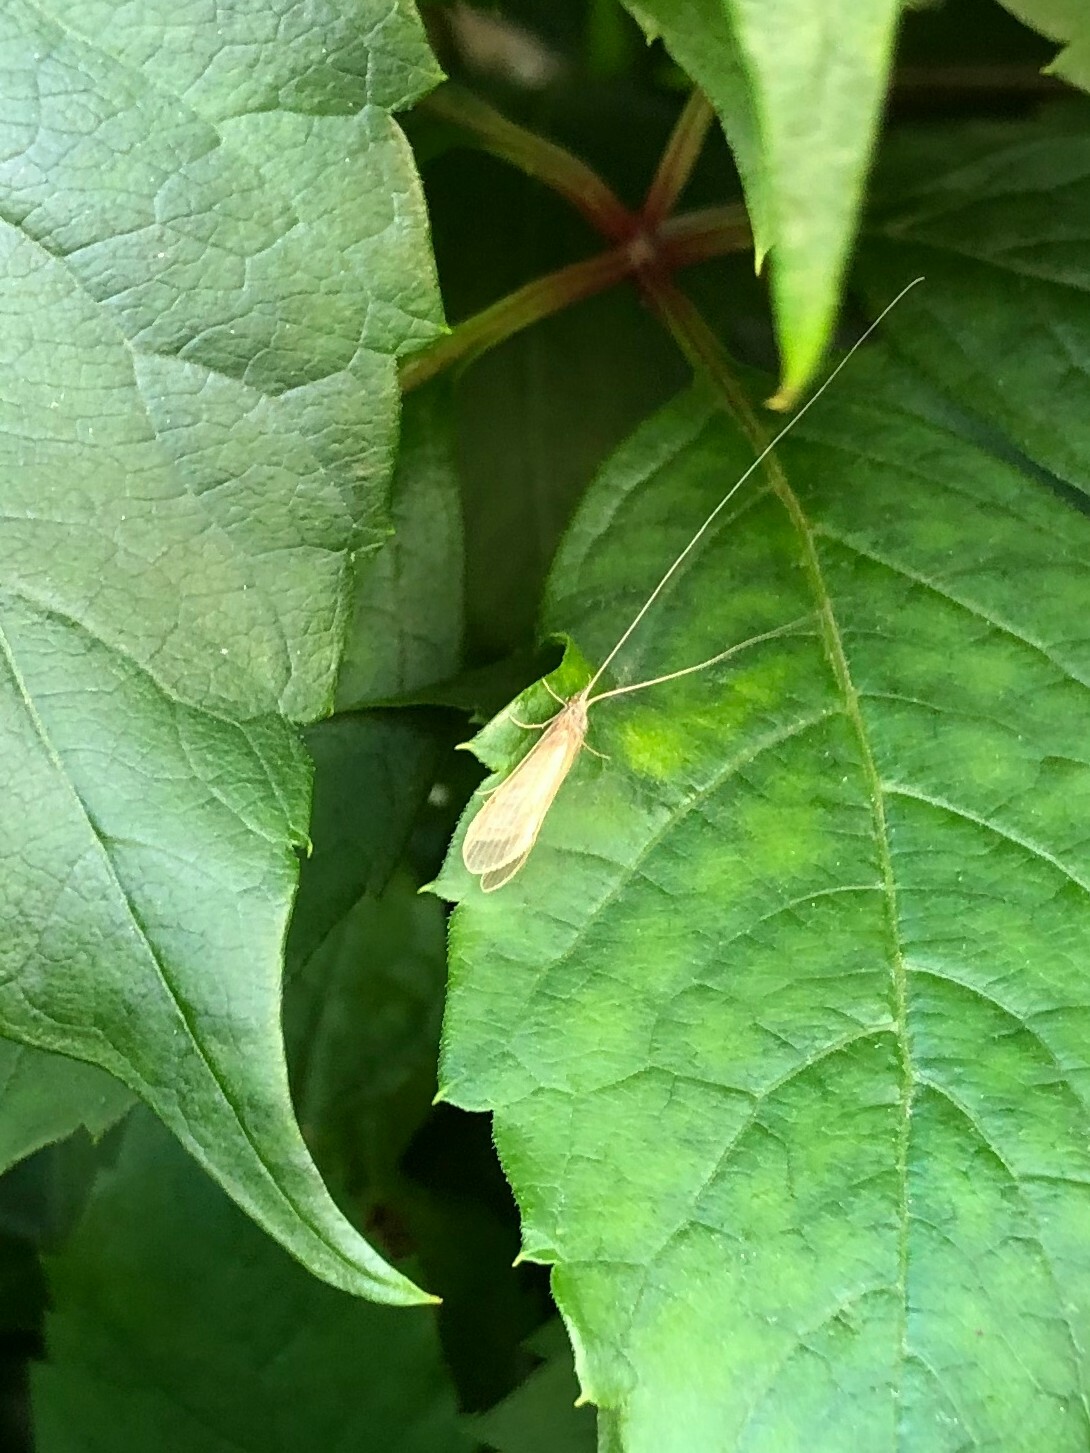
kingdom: Animalia
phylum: Arthropoda
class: Insecta
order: Trichoptera
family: Leptoceridae
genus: Oecetis
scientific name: Oecetis ochracea
